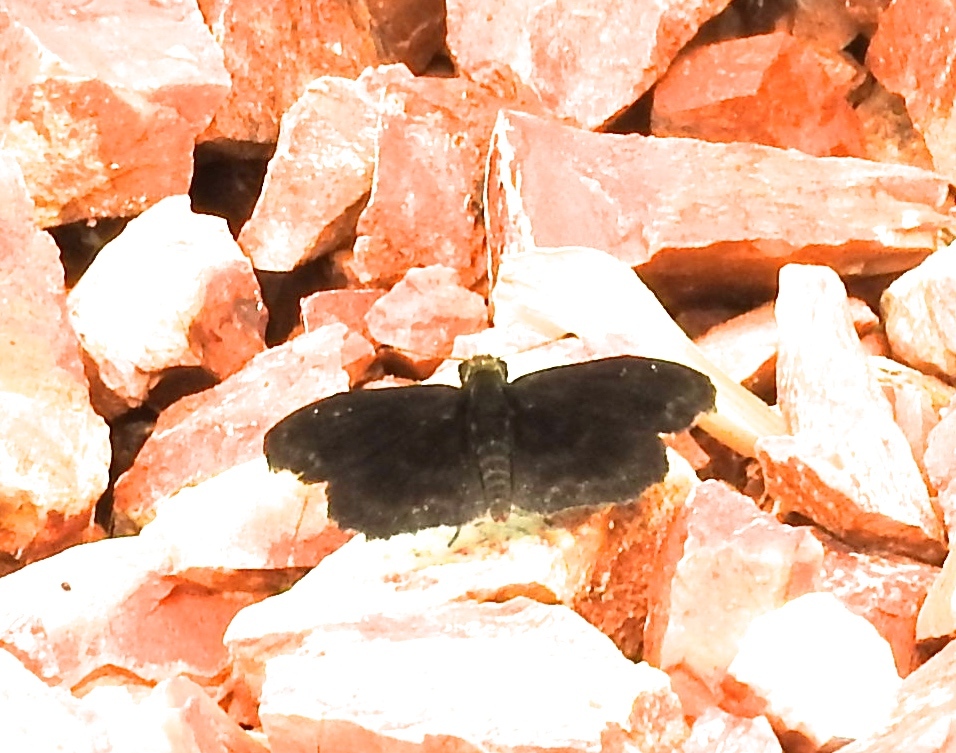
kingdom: Animalia
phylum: Arthropoda
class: Insecta
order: Lepidoptera
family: Hesperiidae
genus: Staphylus
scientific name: Staphylus mazans
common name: Mazans scallopwing
